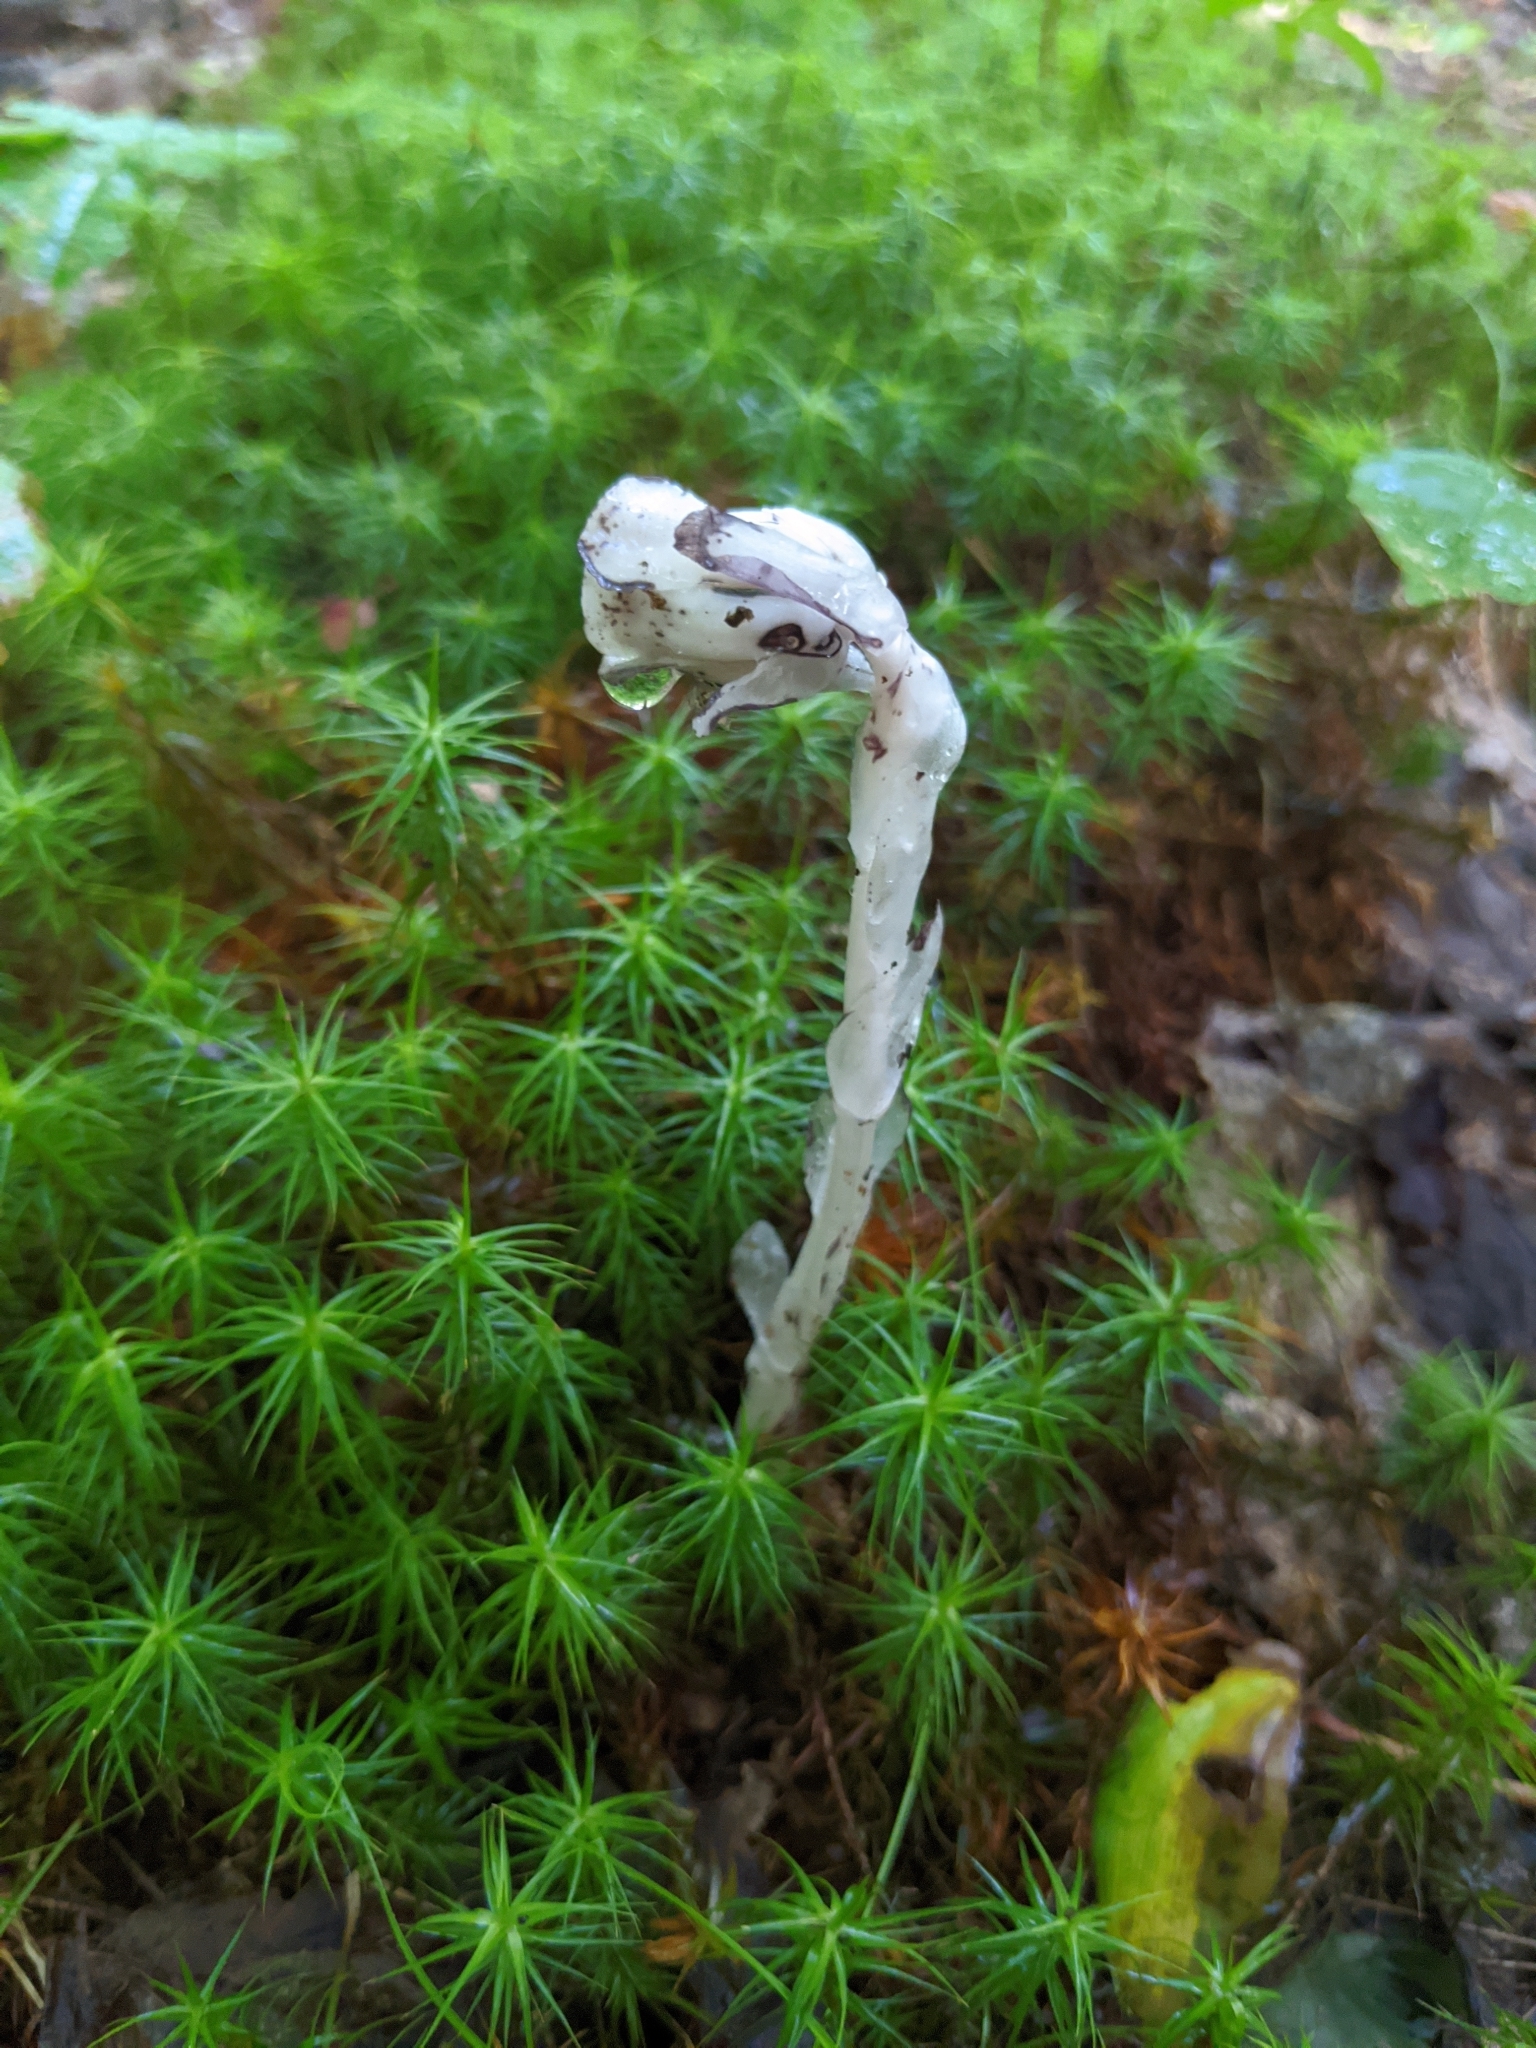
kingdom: Plantae
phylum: Tracheophyta
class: Magnoliopsida
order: Ericales
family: Ericaceae
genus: Monotropa
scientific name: Monotropa uniflora
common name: Convulsion root
